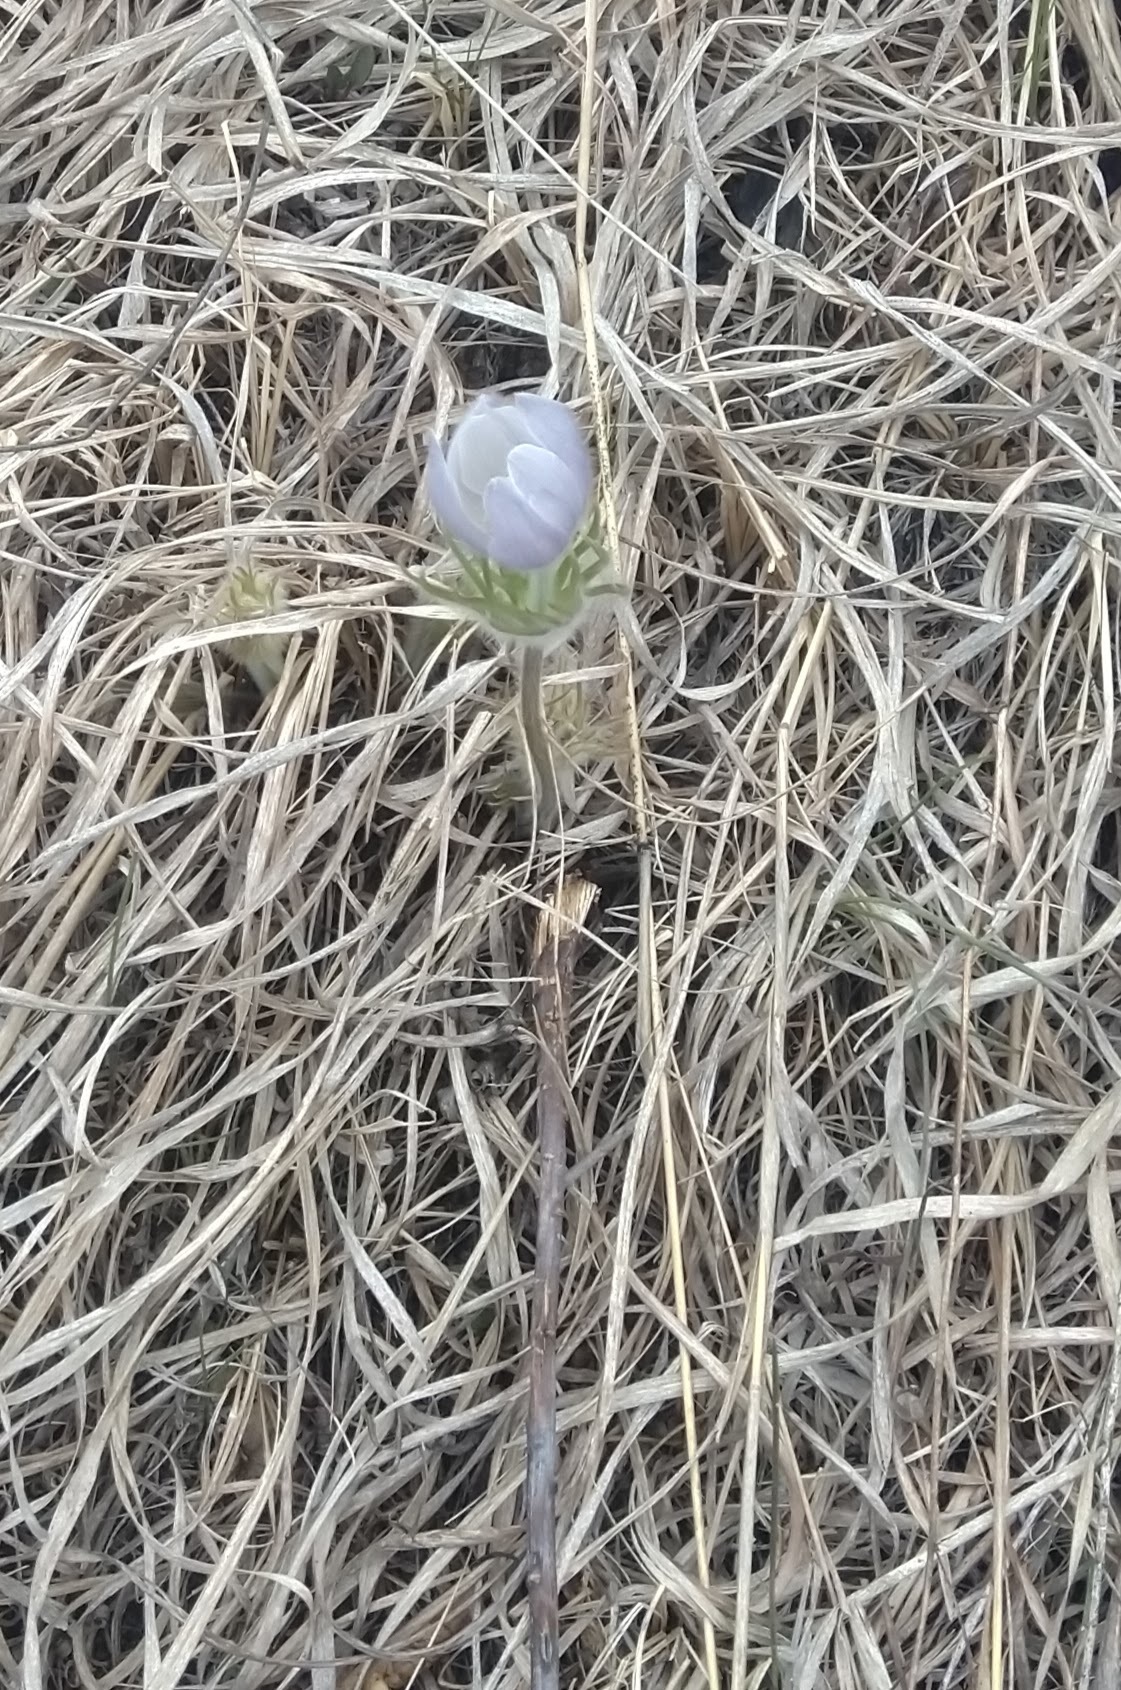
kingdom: Plantae
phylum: Tracheophyta
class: Magnoliopsida
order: Ranunculales
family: Ranunculaceae
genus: Pulsatilla
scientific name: Pulsatilla nuttalliana
